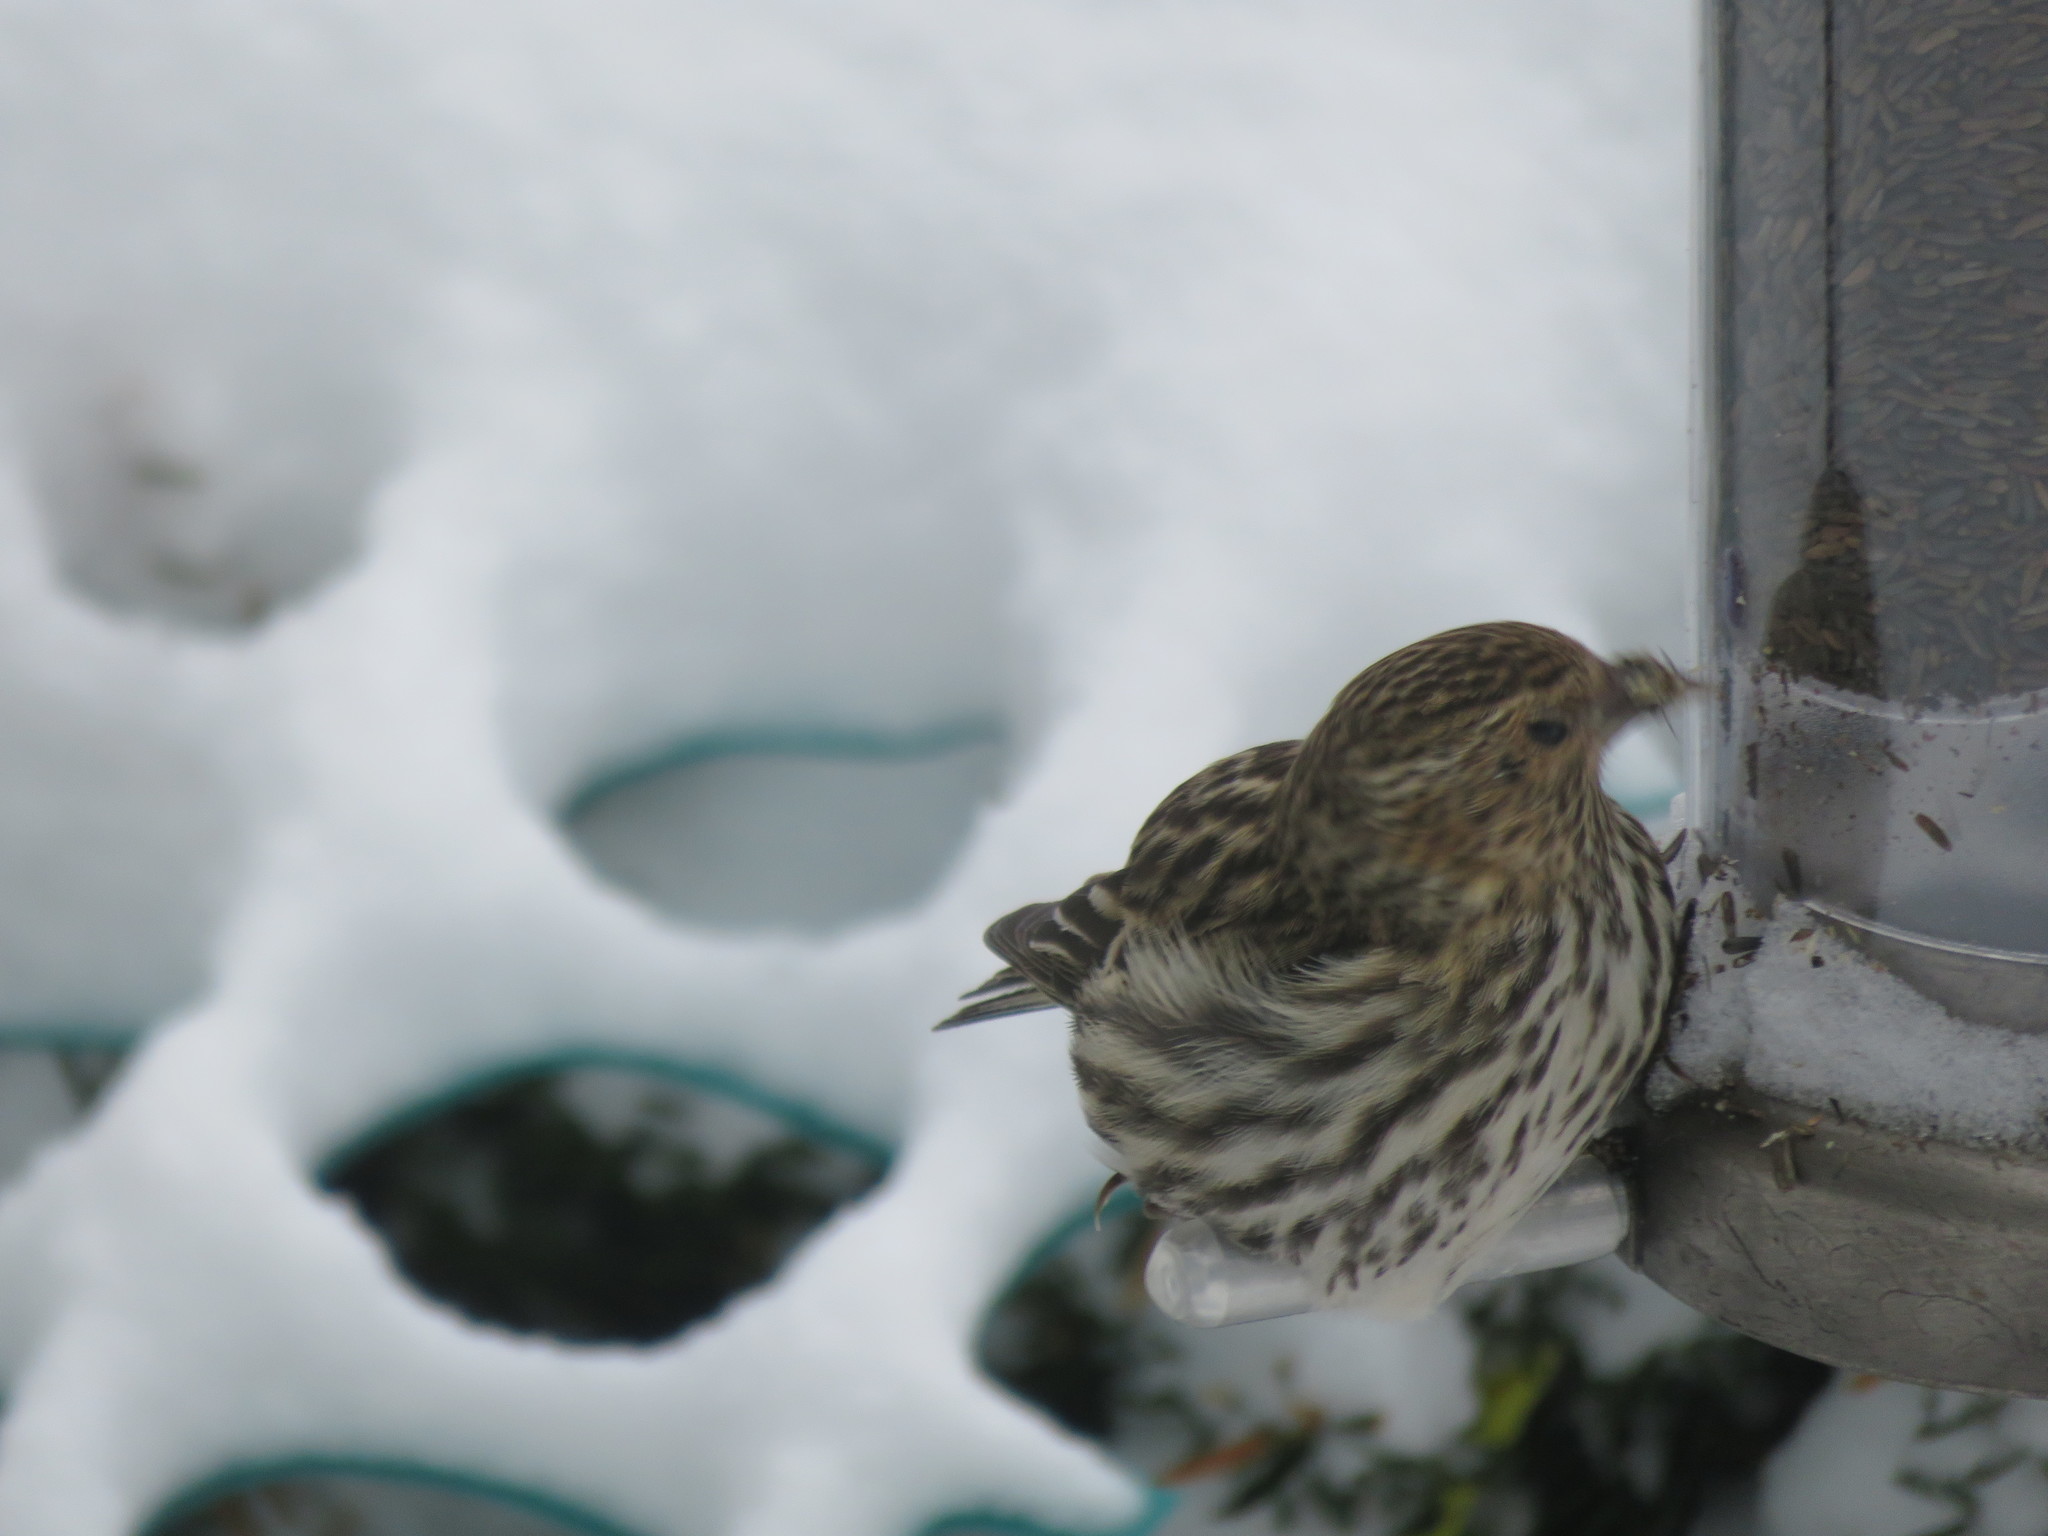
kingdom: Animalia
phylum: Chordata
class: Aves
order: Passeriformes
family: Fringillidae
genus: Spinus
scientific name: Spinus pinus
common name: Pine siskin
